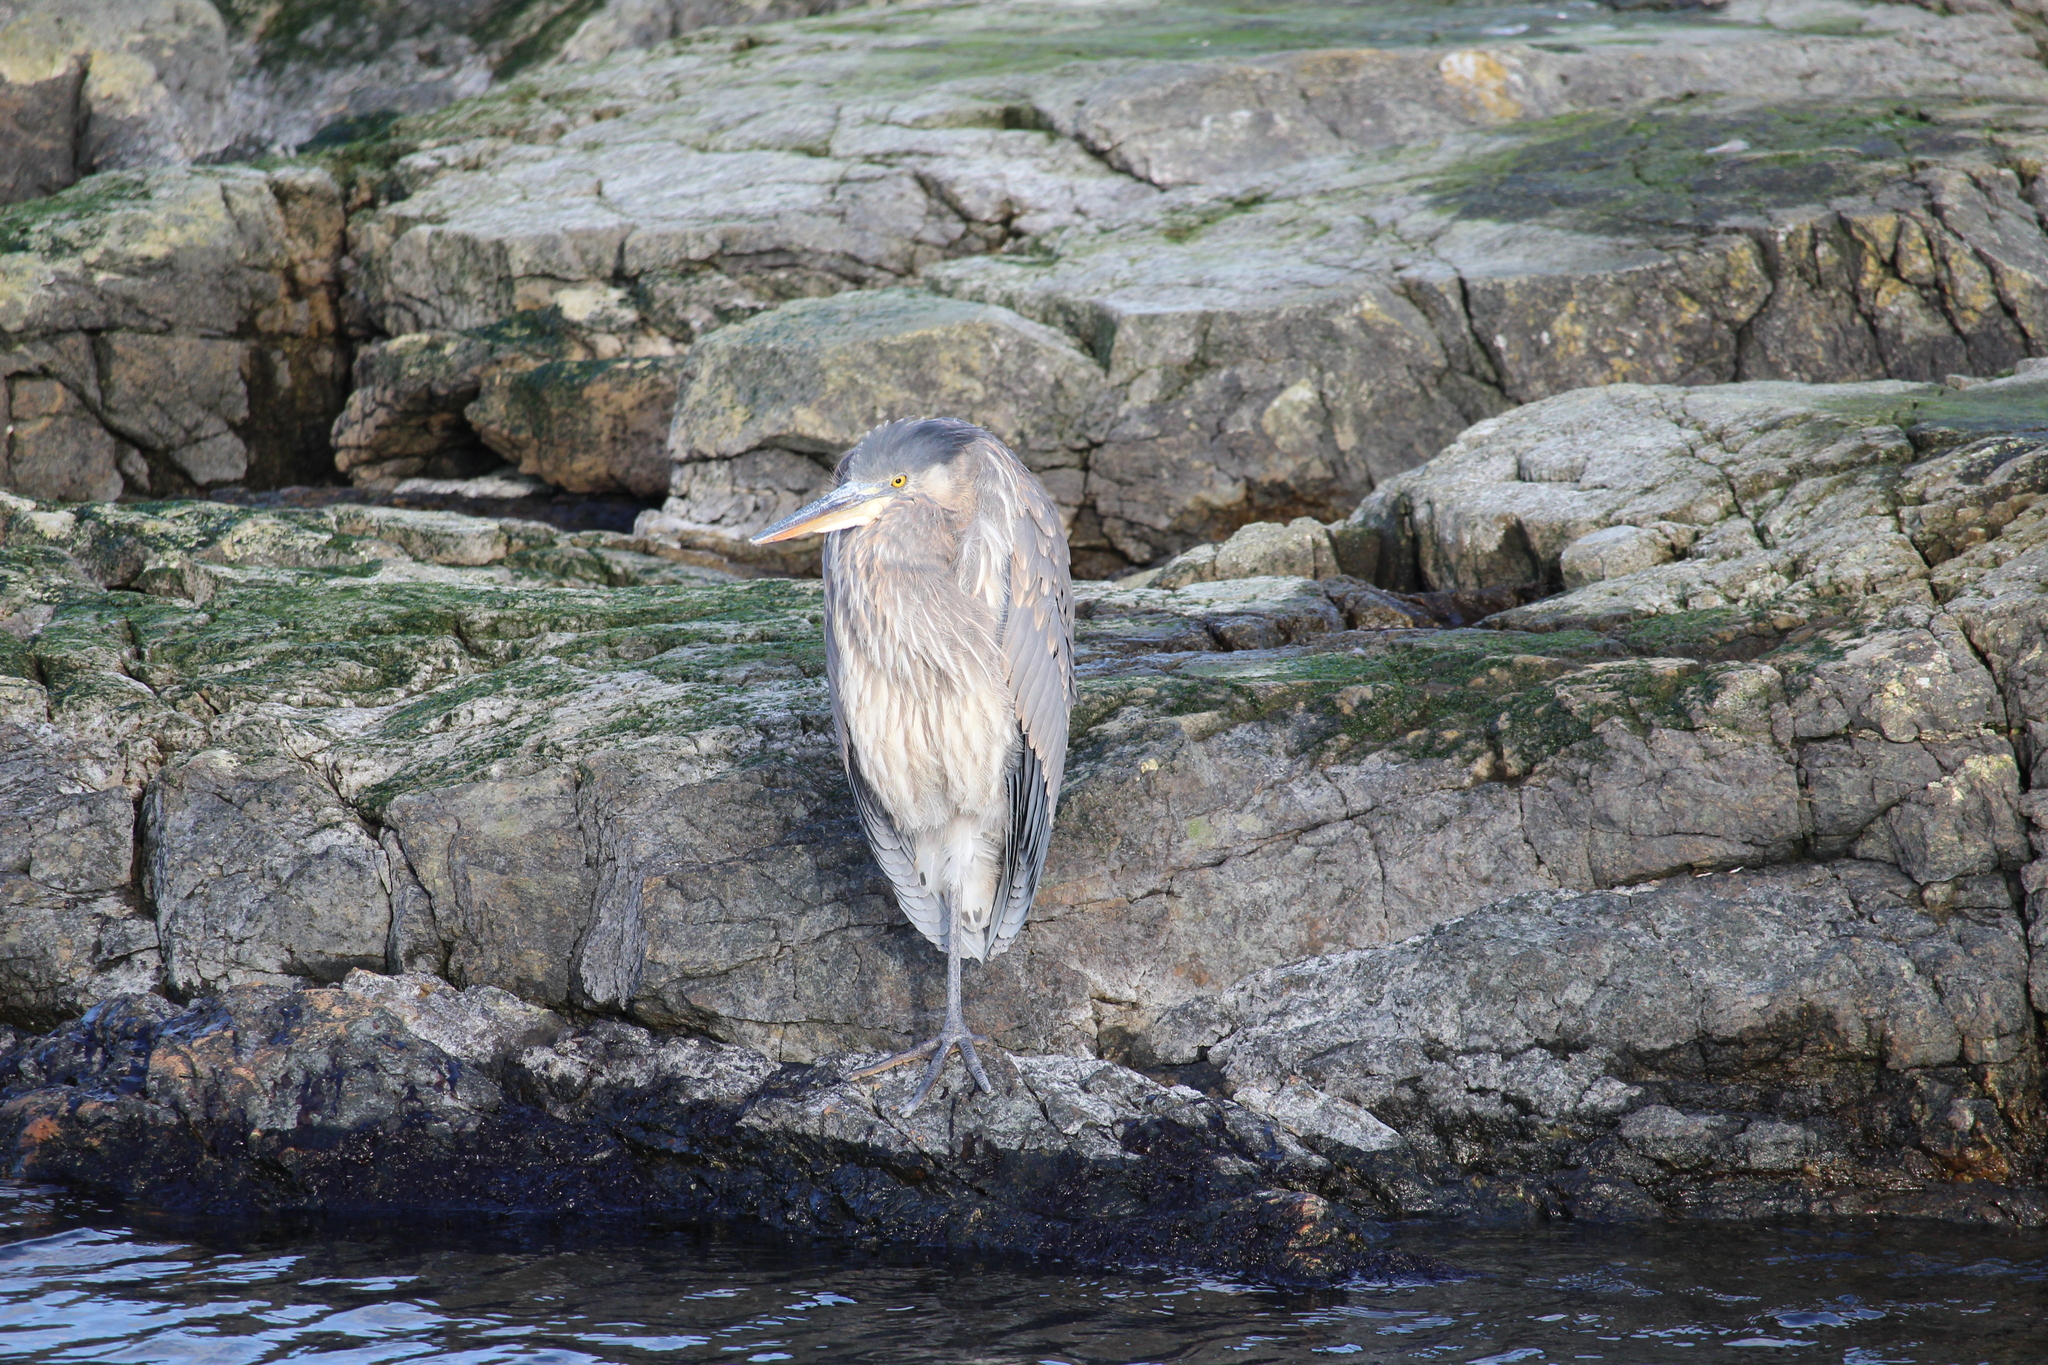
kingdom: Animalia
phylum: Chordata
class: Aves
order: Pelecaniformes
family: Ardeidae
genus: Ardea
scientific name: Ardea herodias
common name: Great blue heron
